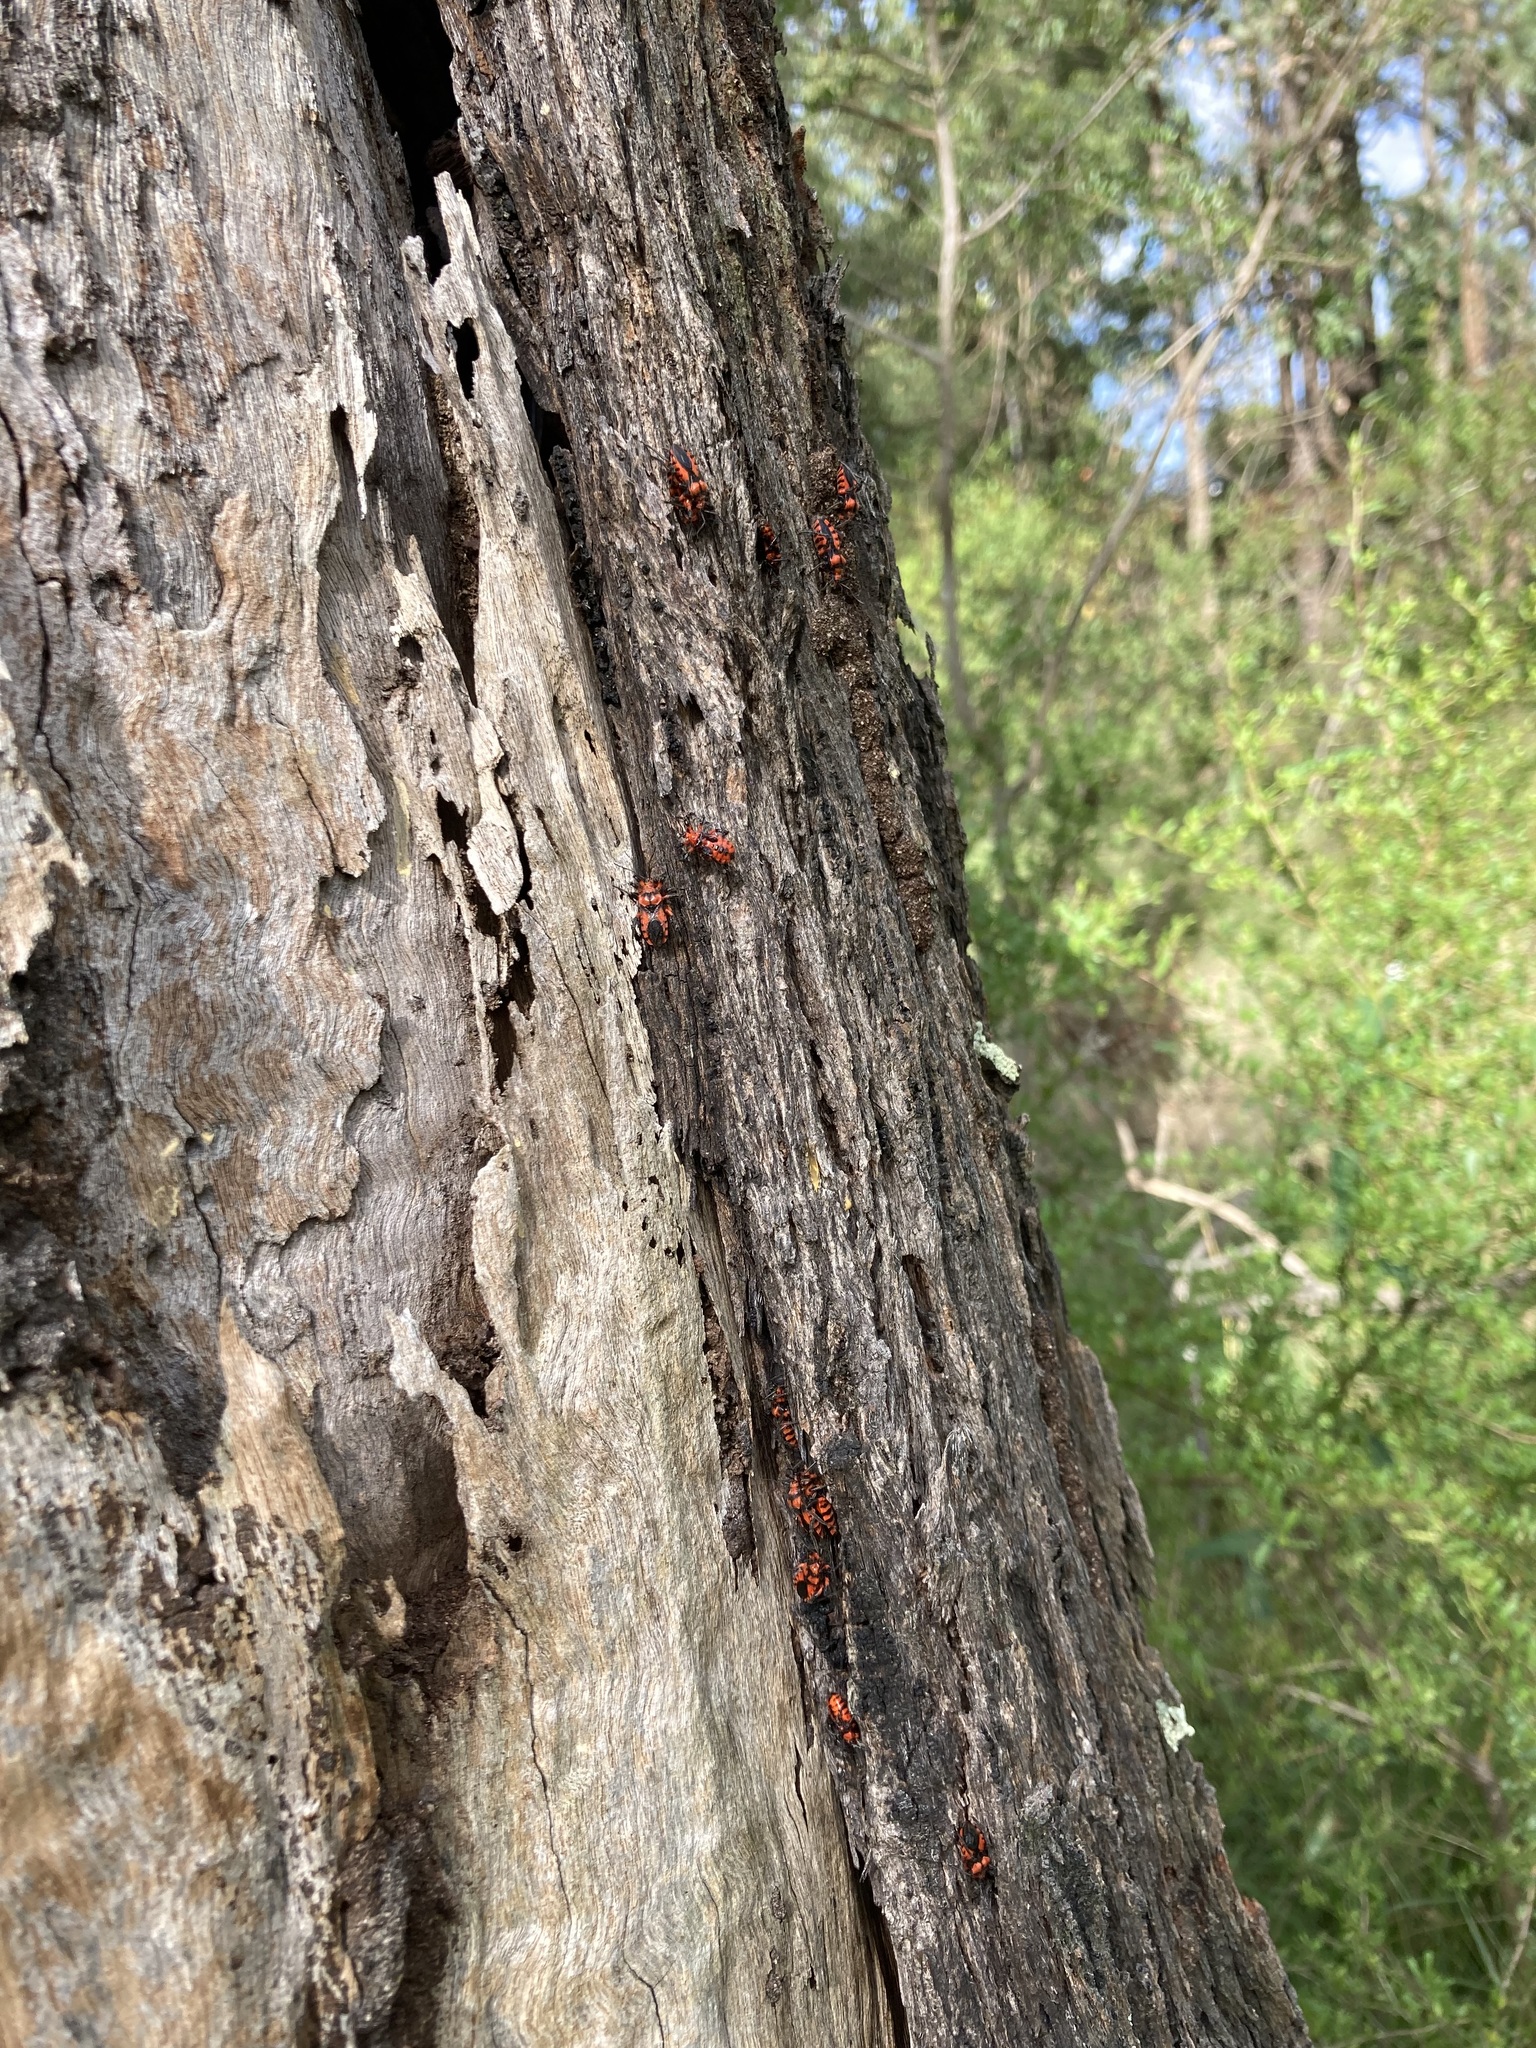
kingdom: Animalia
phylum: Arthropoda
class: Insecta
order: Hemiptera
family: Reduviidae
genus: Tegea
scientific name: Tegea atropicta
